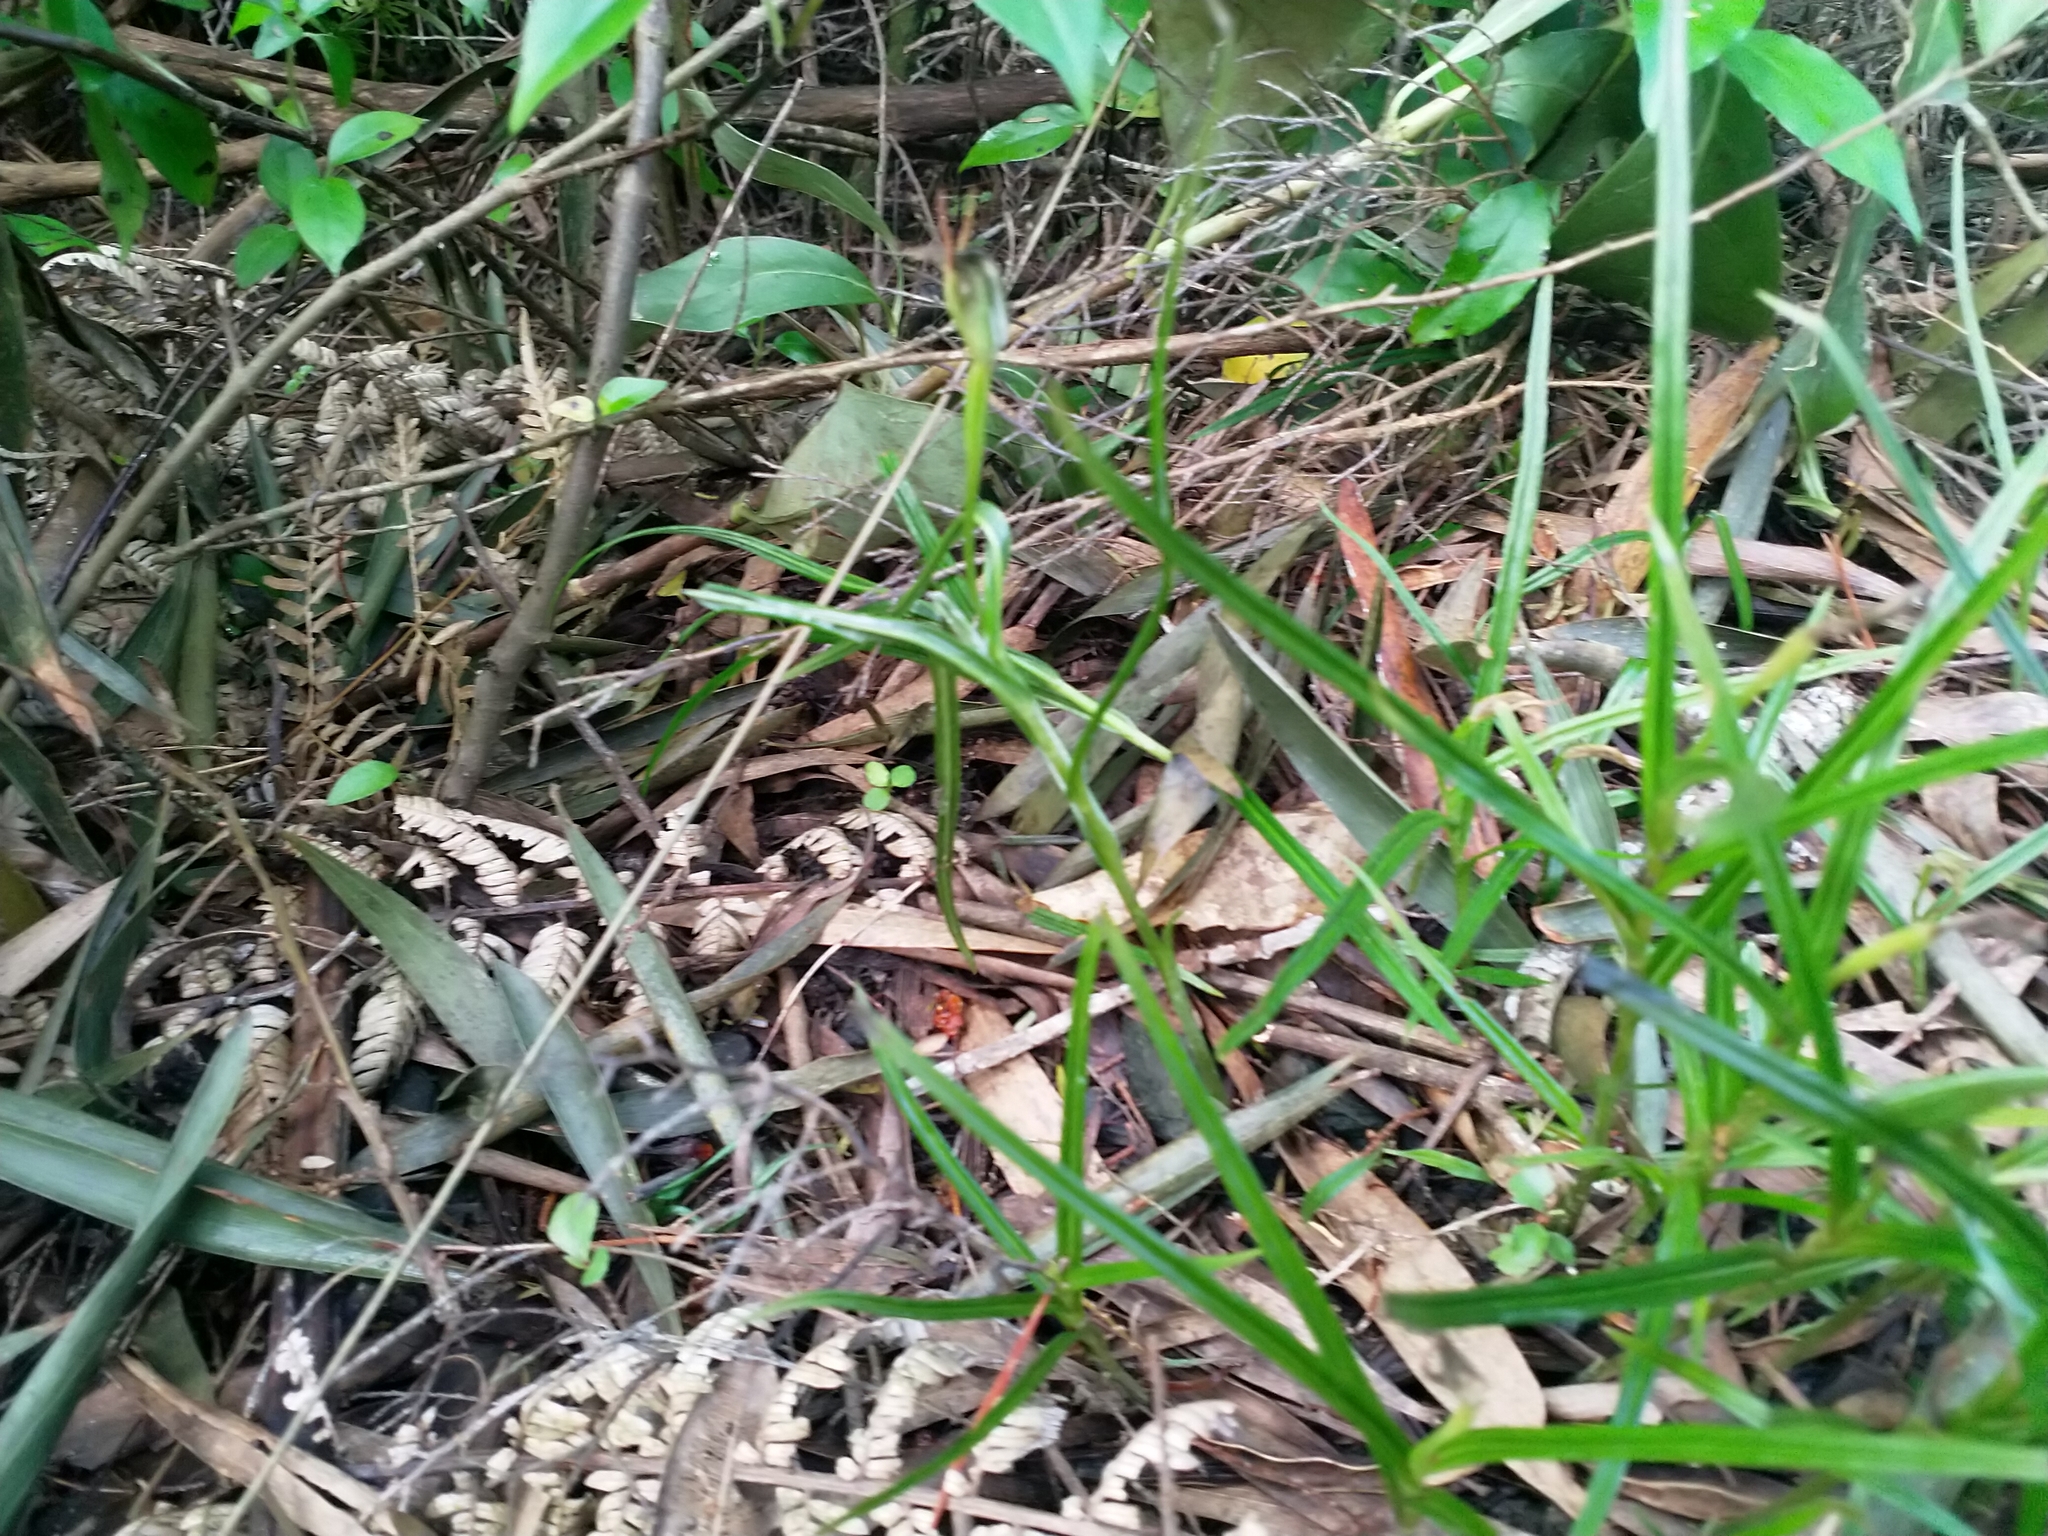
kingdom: Plantae
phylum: Tracheophyta
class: Liliopsida
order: Asparagales
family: Orchidaceae
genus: Pterostylis
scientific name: Pterostylis graminea
